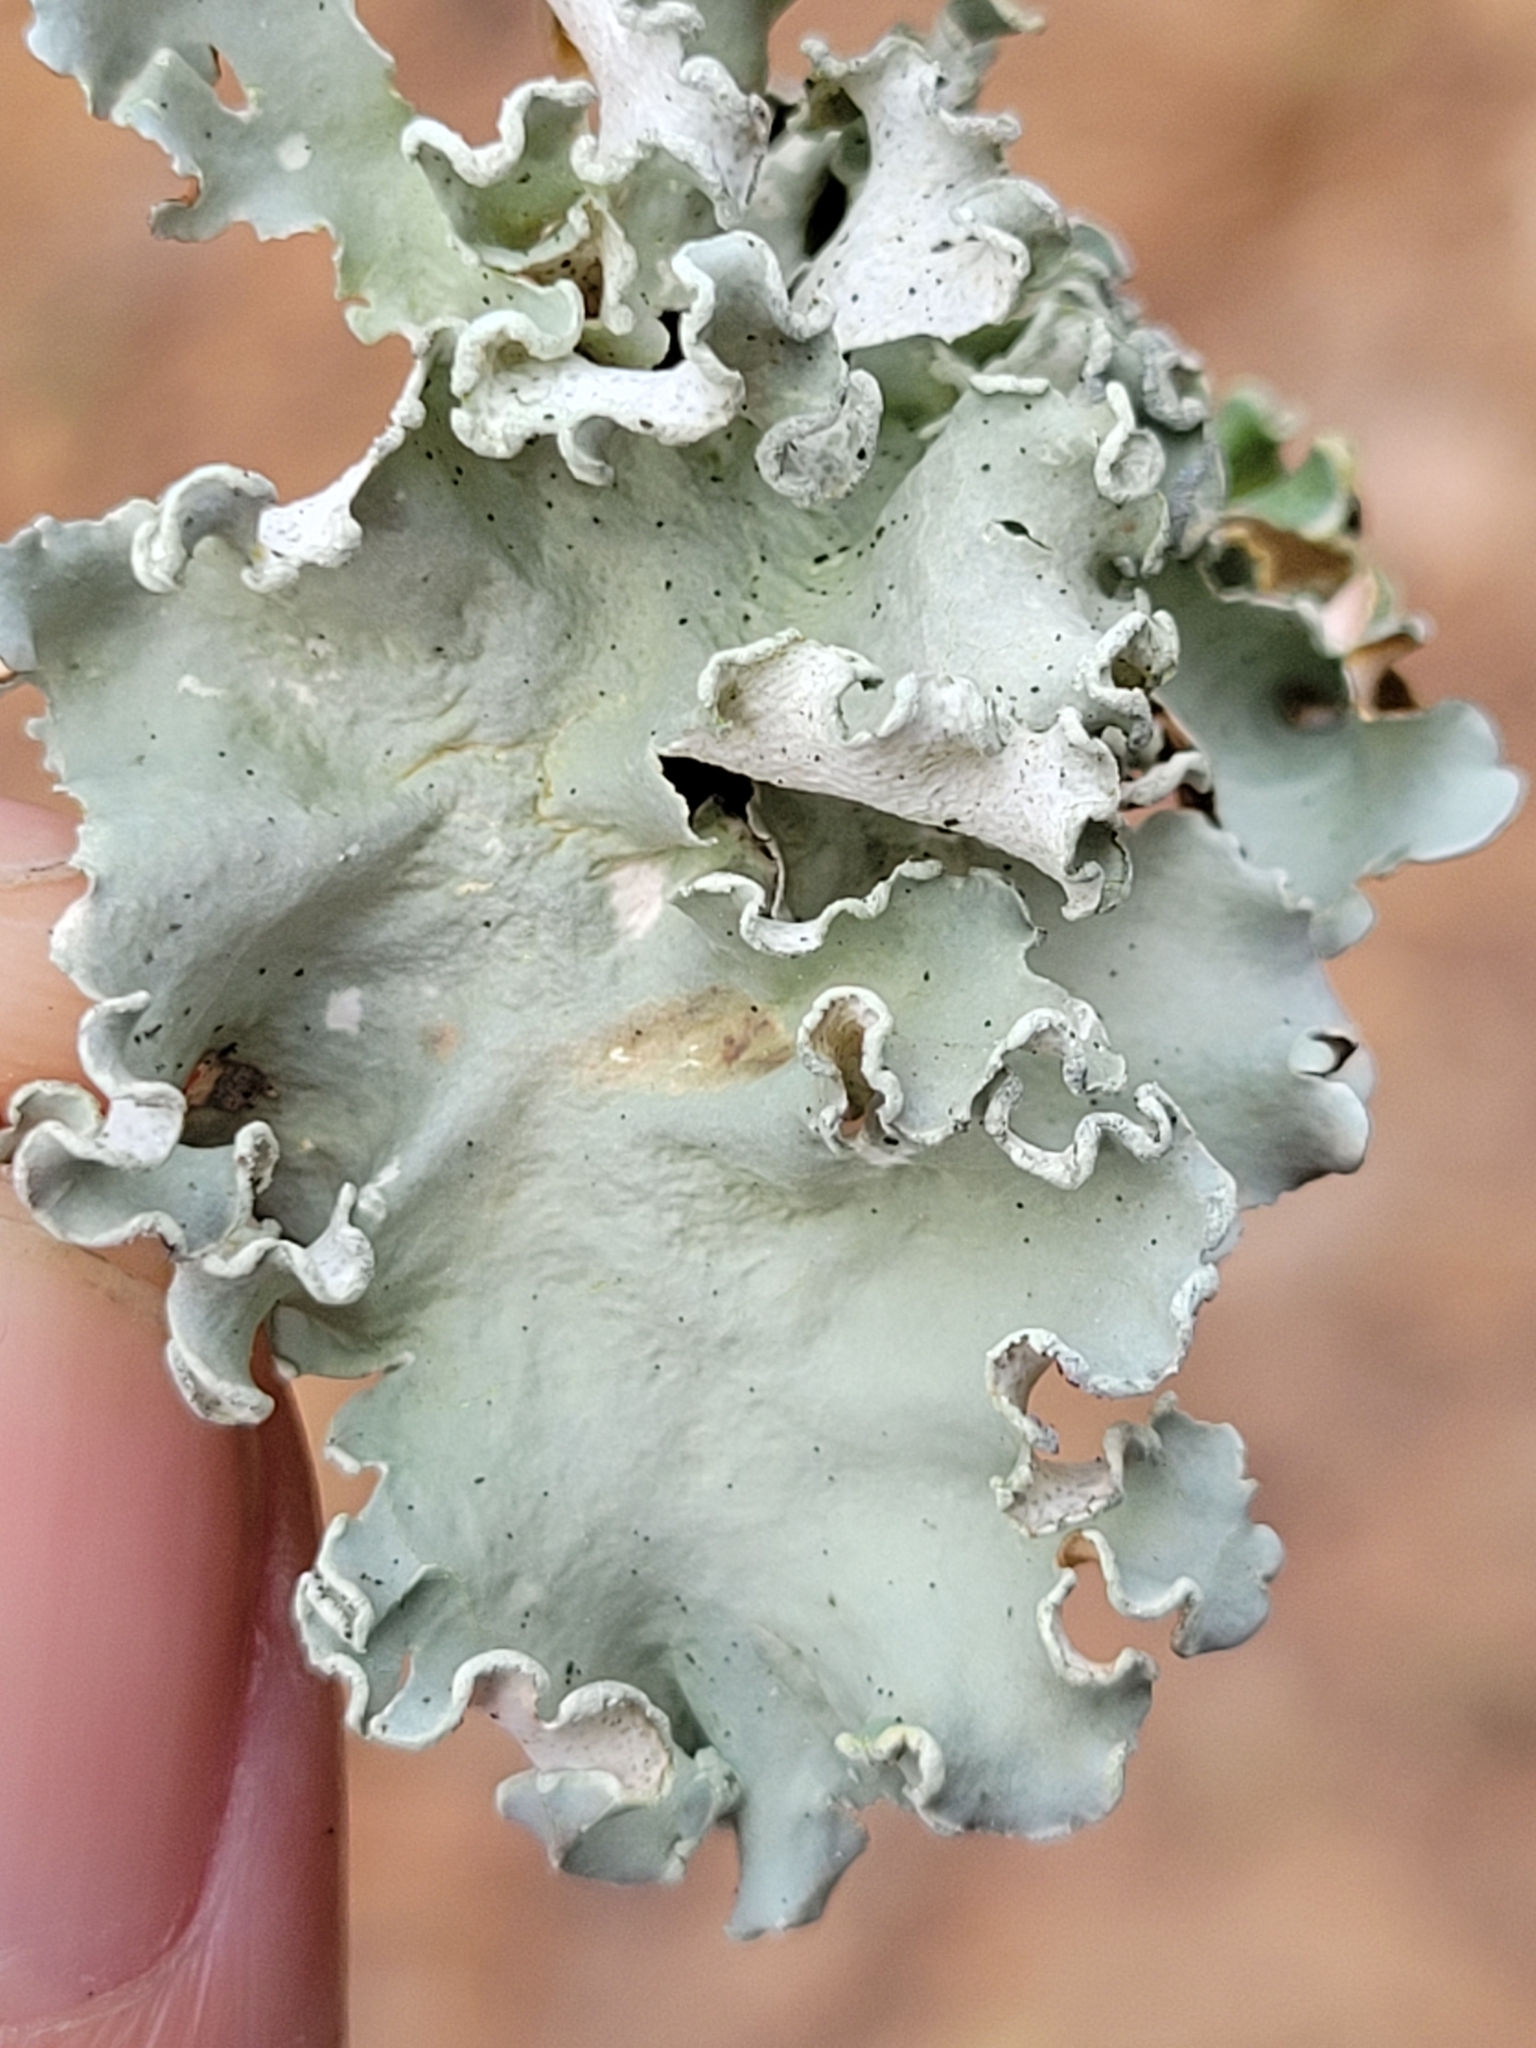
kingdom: Fungi
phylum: Ascomycota
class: Lecanoromycetes
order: Lecanorales
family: Parmeliaceae
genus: Parmotrema
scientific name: Parmotrema austrosinense
